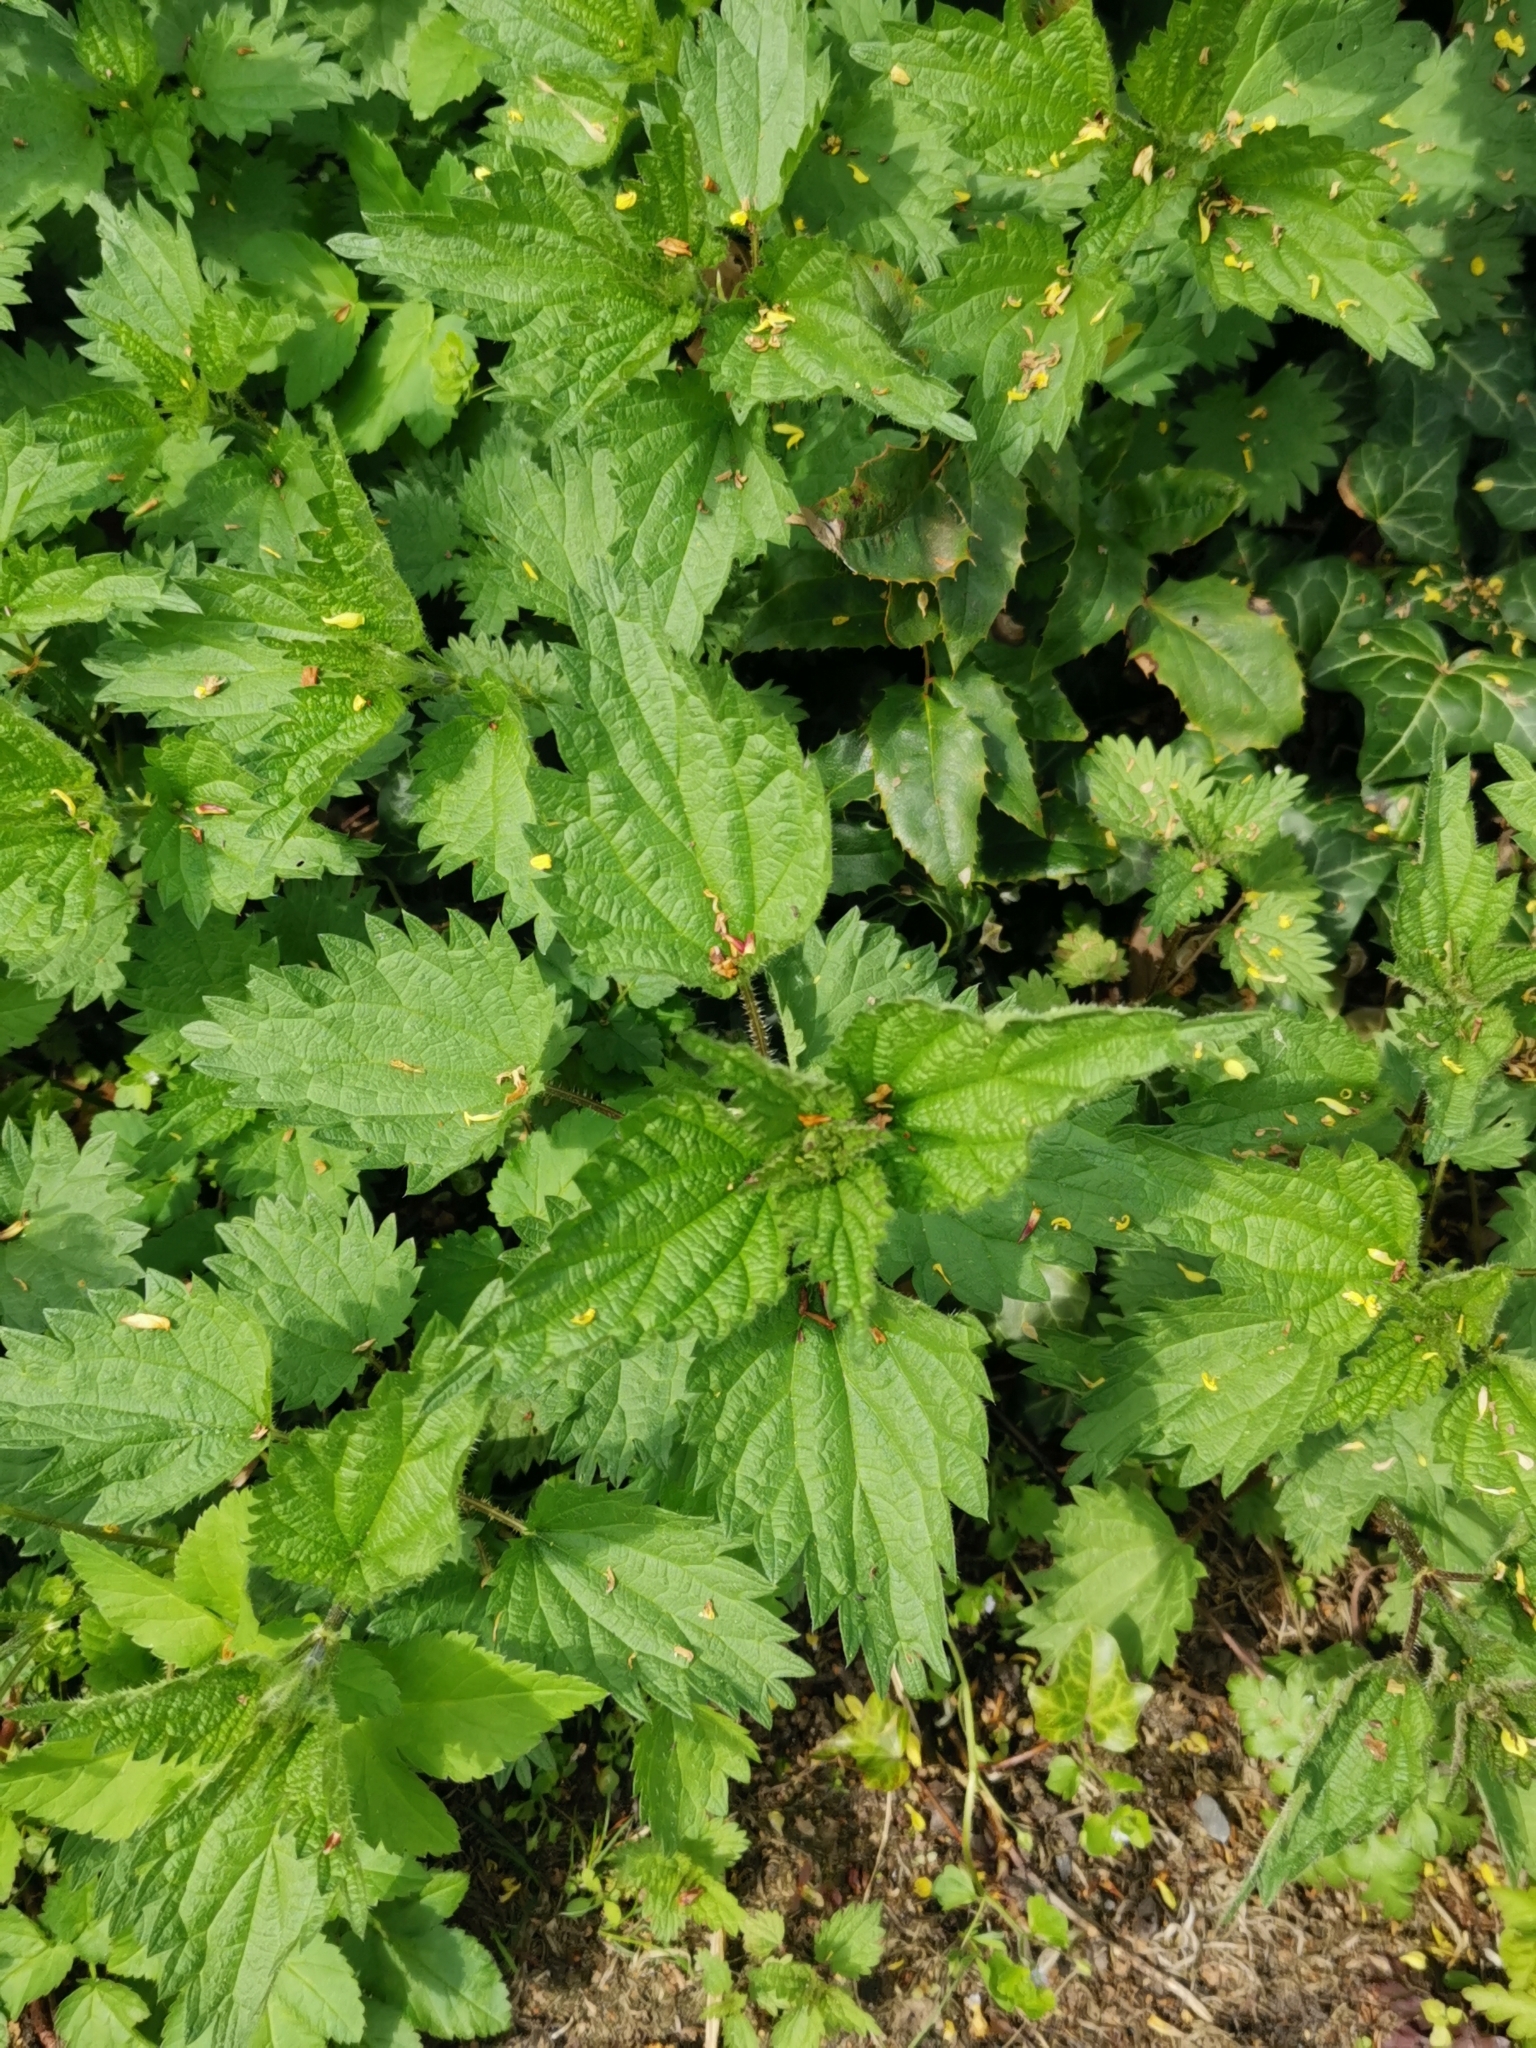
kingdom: Plantae
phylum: Tracheophyta
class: Magnoliopsida
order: Rosales
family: Urticaceae
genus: Urtica
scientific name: Urtica dioica
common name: Common nettle
